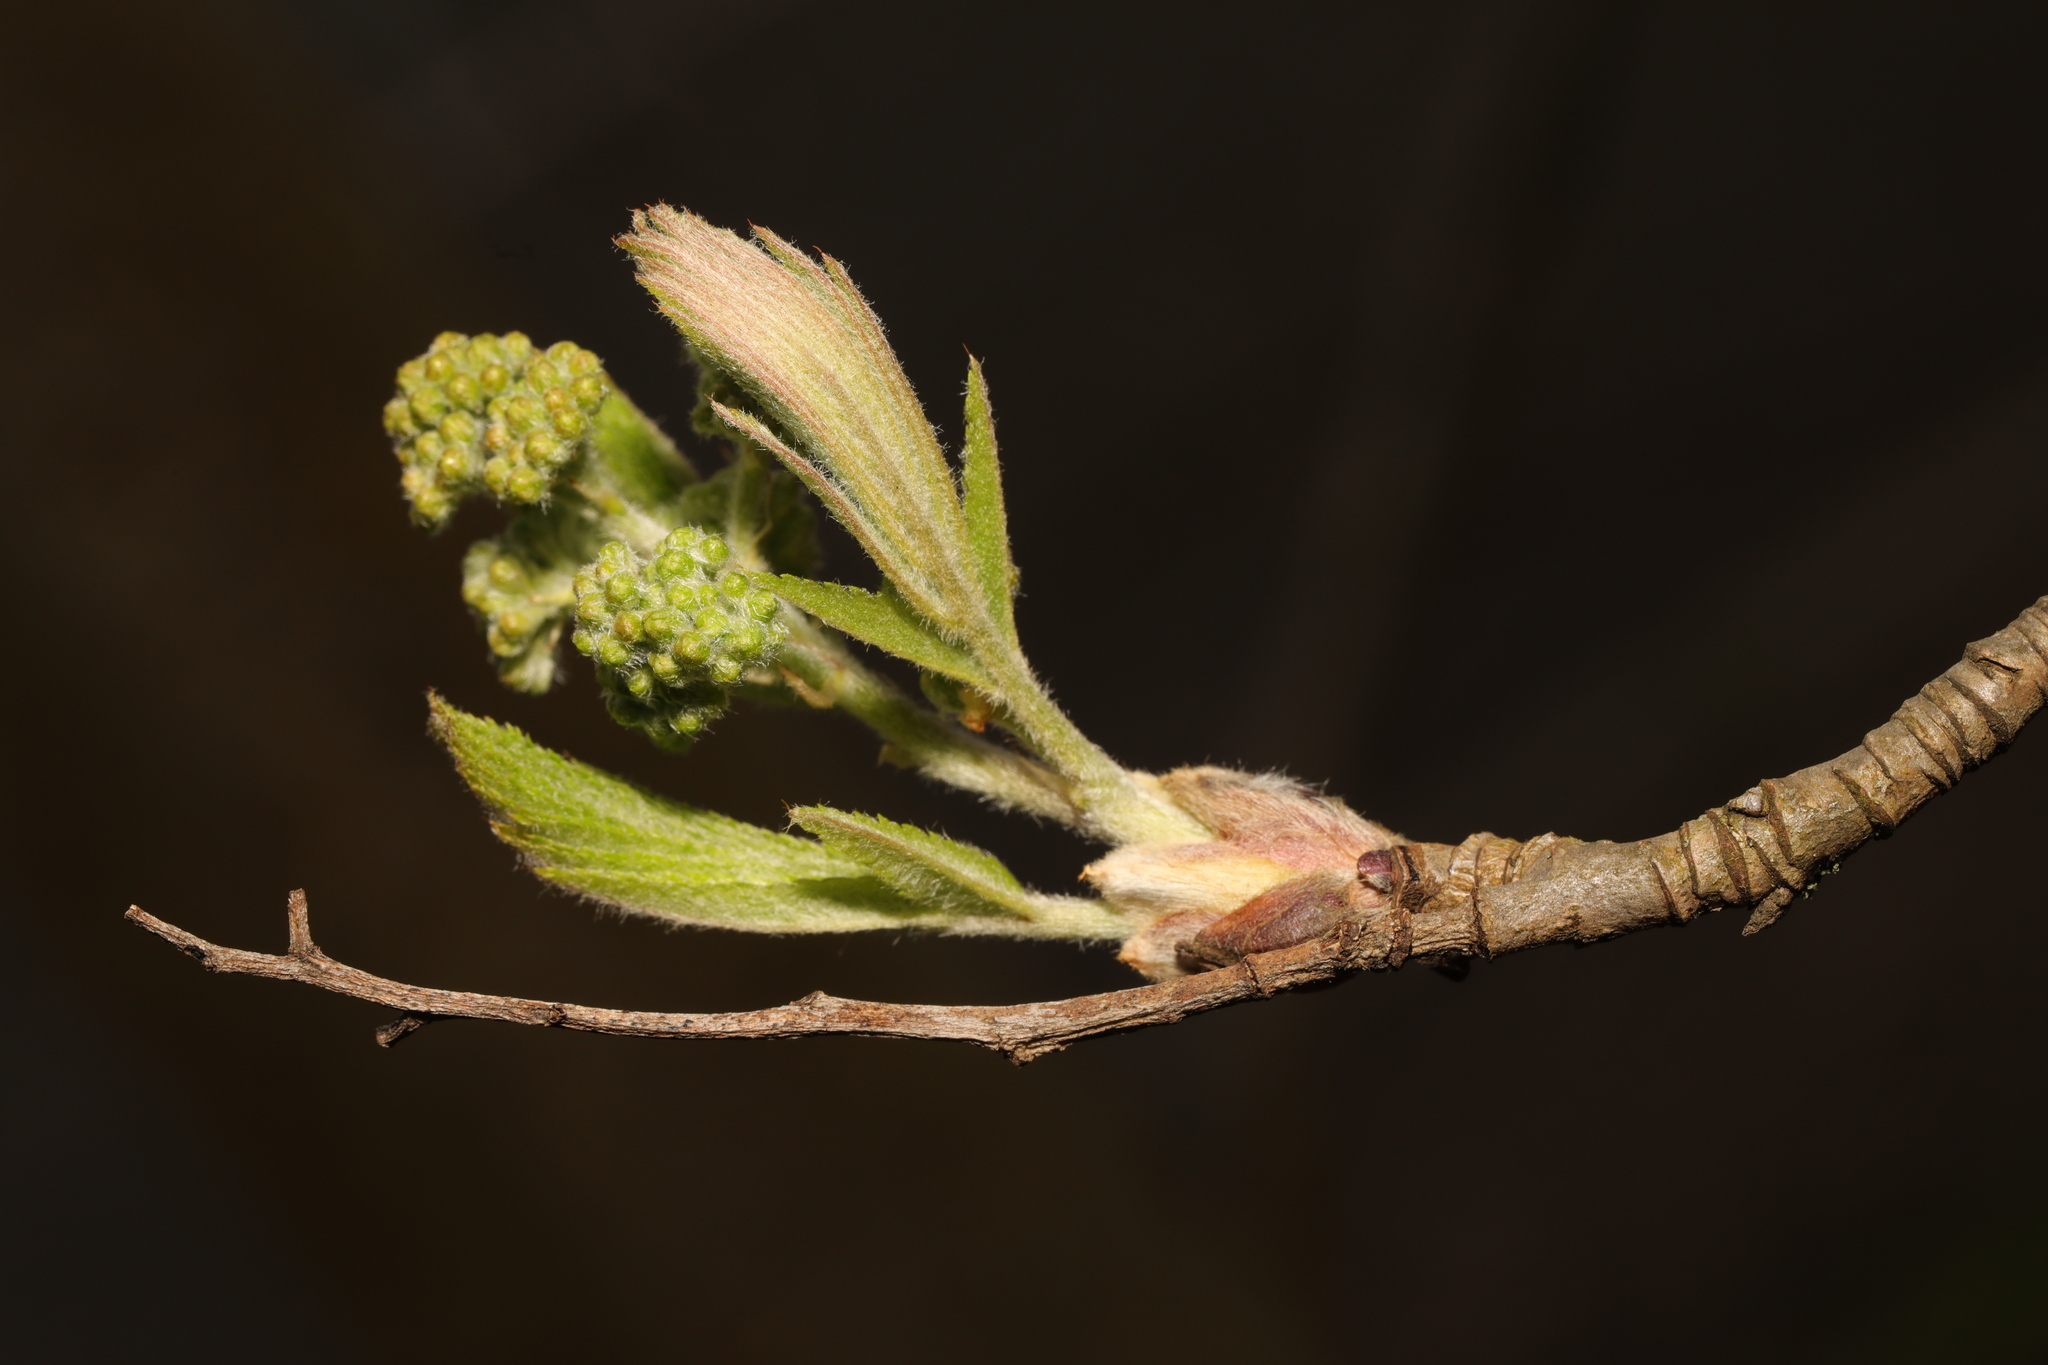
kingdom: Plantae
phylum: Tracheophyta
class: Magnoliopsida
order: Rosales
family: Rosaceae
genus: Sorbus
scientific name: Sorbus aucuparia
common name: Rowan
